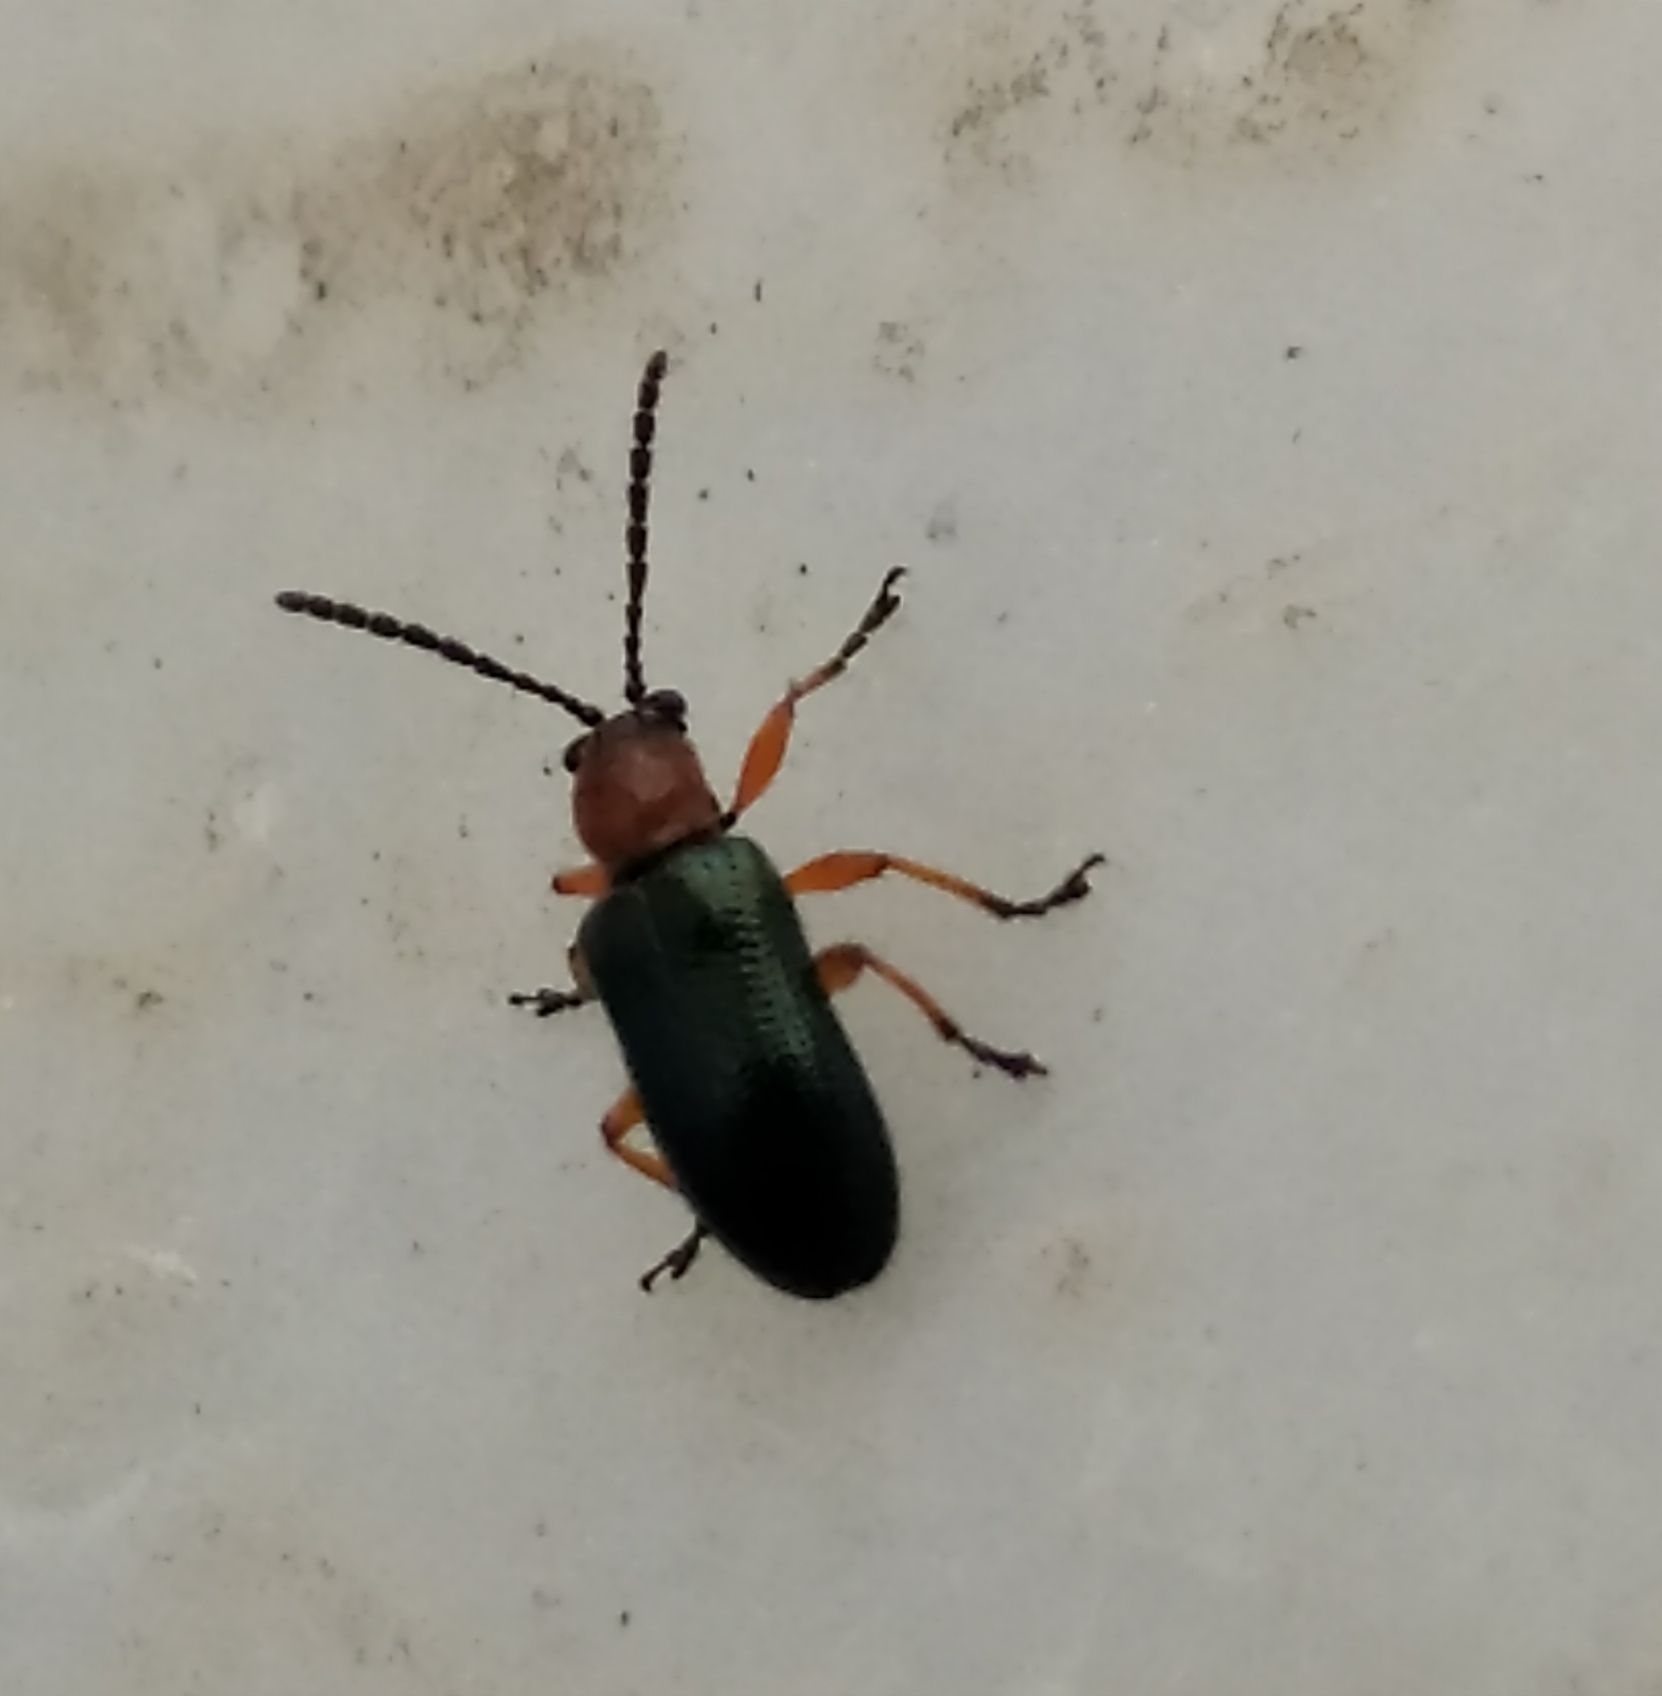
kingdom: Animalia
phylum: Arthropoda
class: Insecta
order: Coleoptera
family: Chrysomelidae
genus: Oulema
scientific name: Oulema
